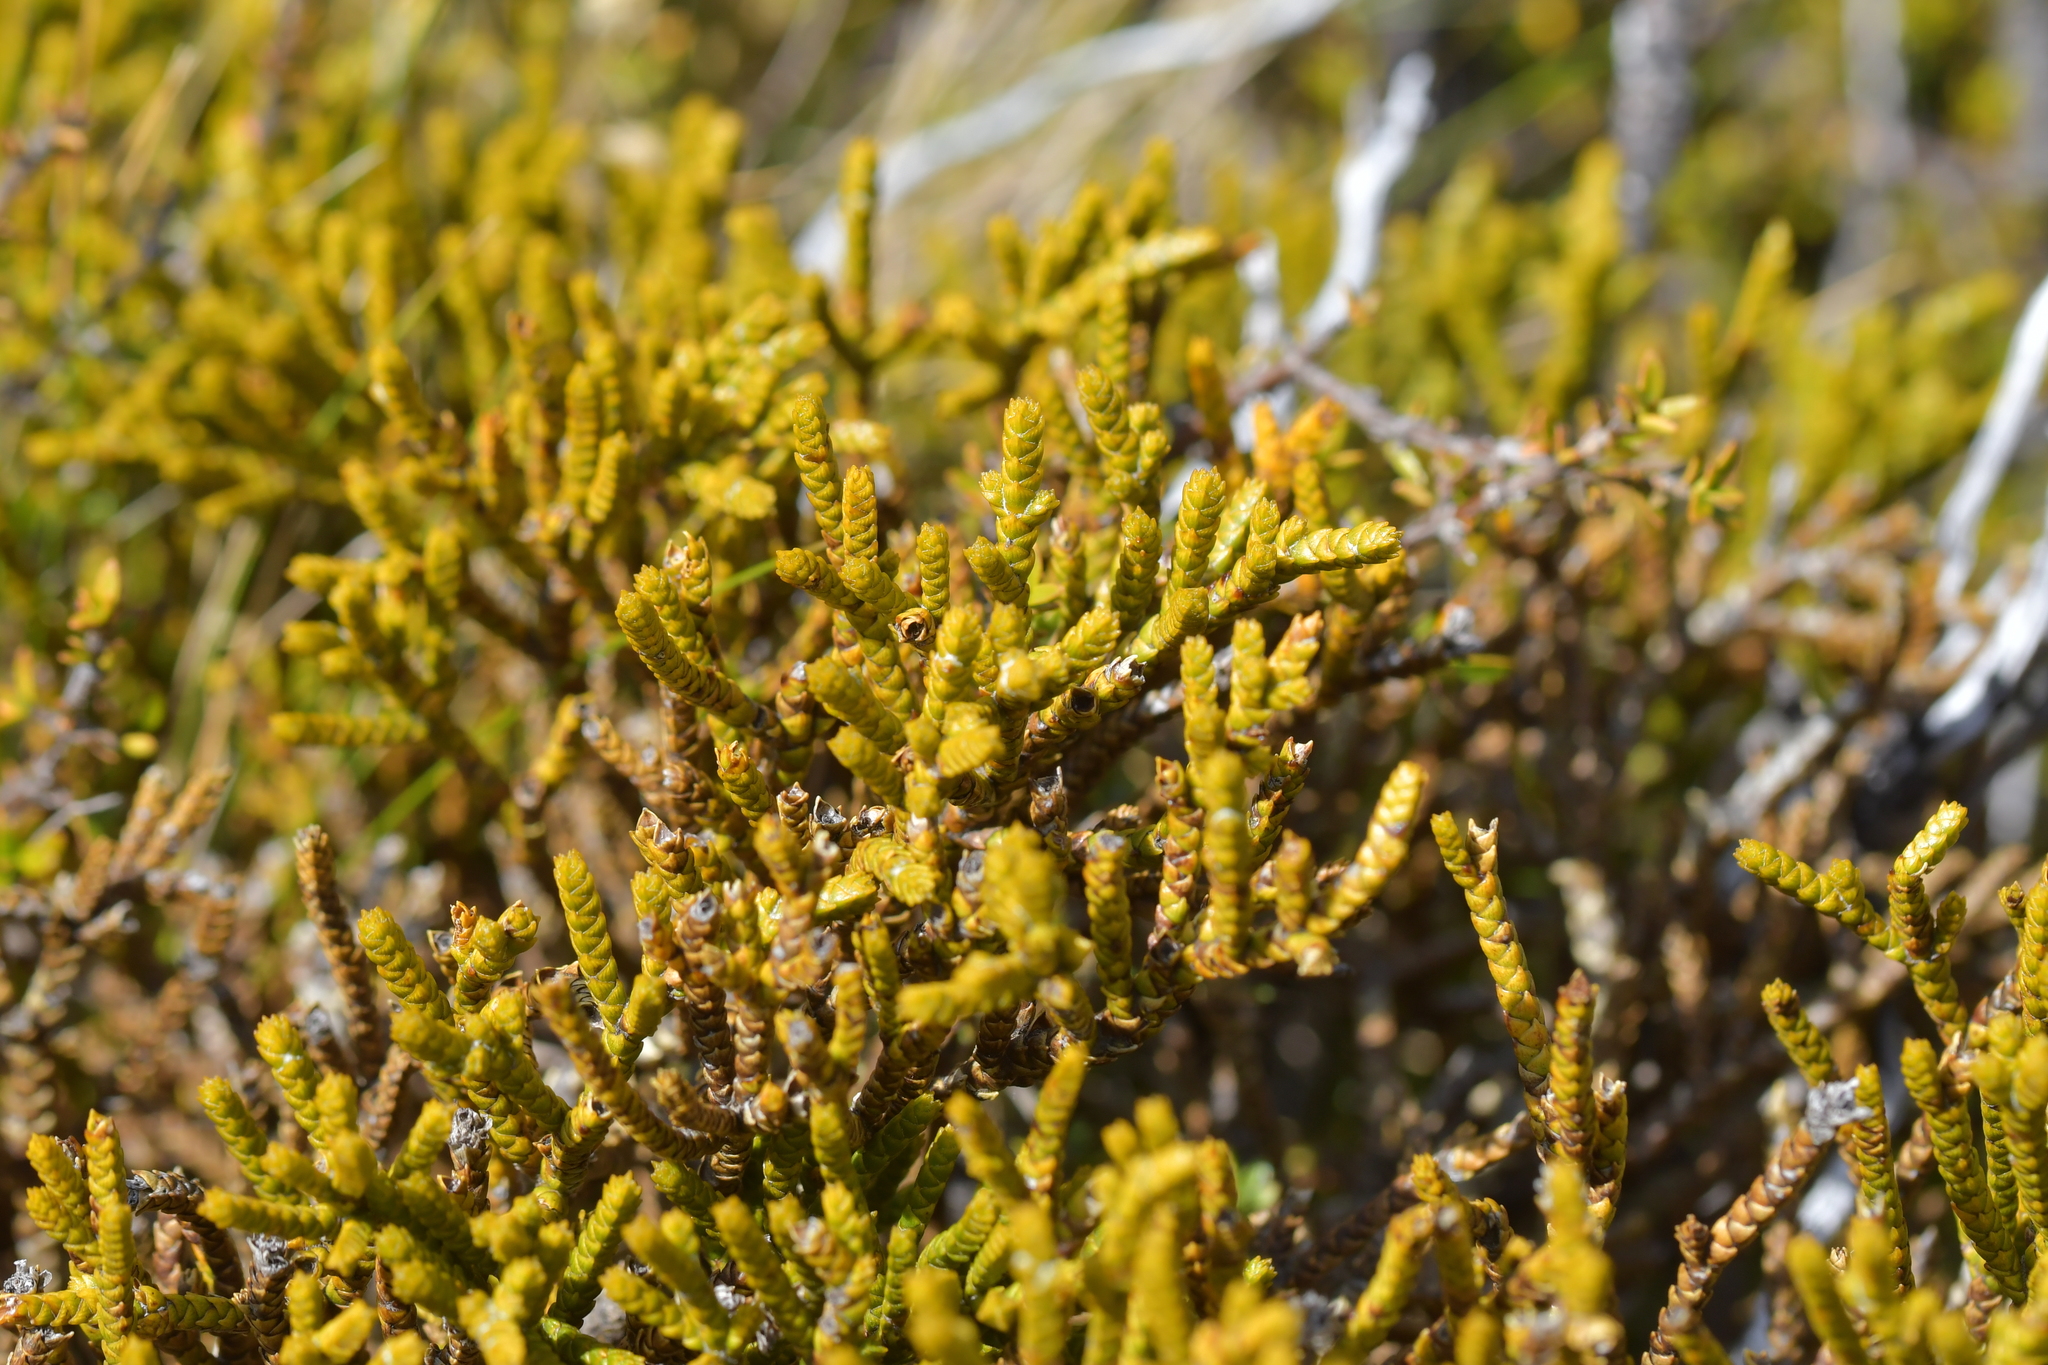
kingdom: Plantae
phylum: Tracheophyta
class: Magnoliopsida
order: Lamiales
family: Plantaginaceae
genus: Veronica
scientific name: Veronica lycopodioides
